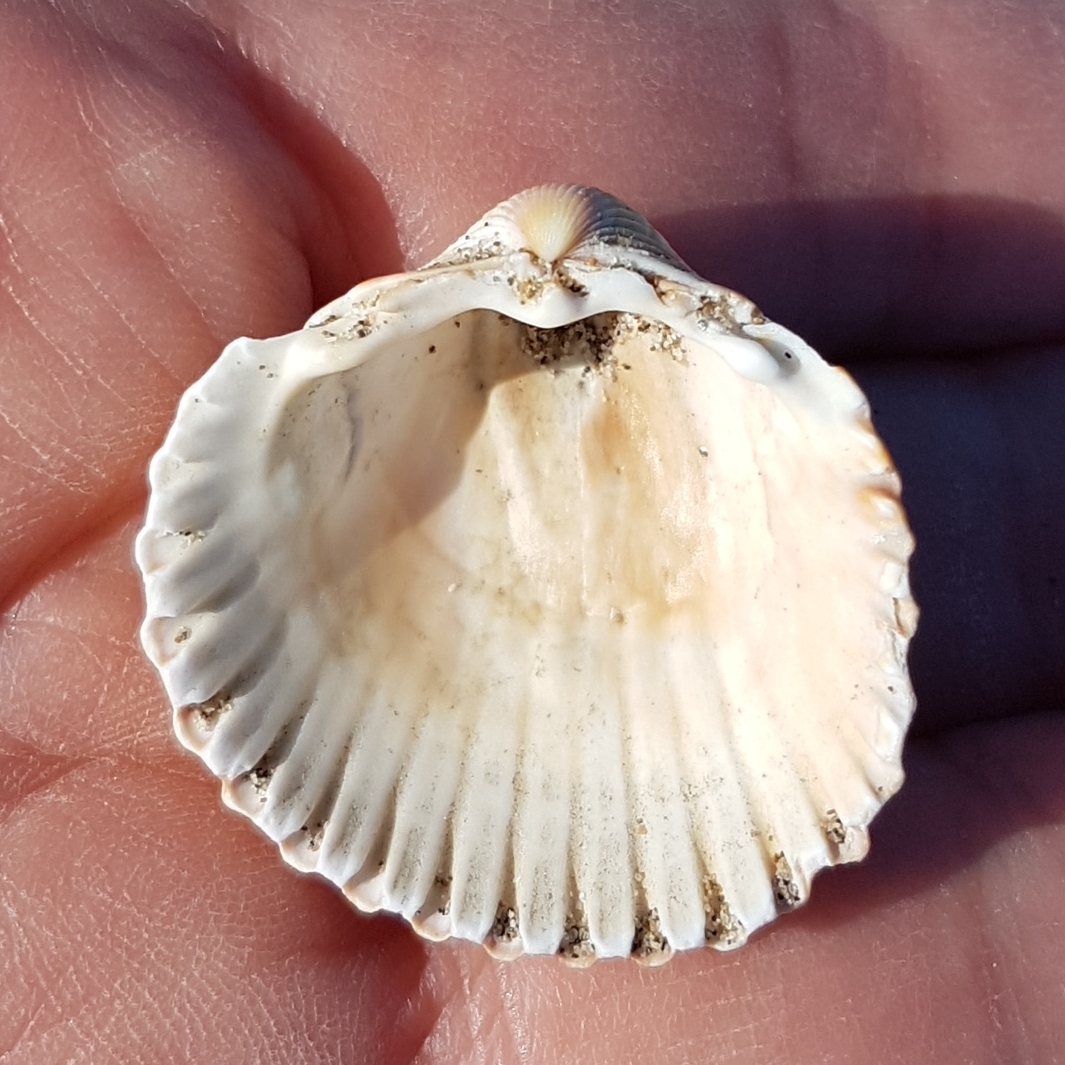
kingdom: Animalia
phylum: Mollusca
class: Bivalvia
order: Cardiida
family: Cardiidae
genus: Acanthocardia
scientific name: Acanthocardia tuberculata
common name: Rough cockle
